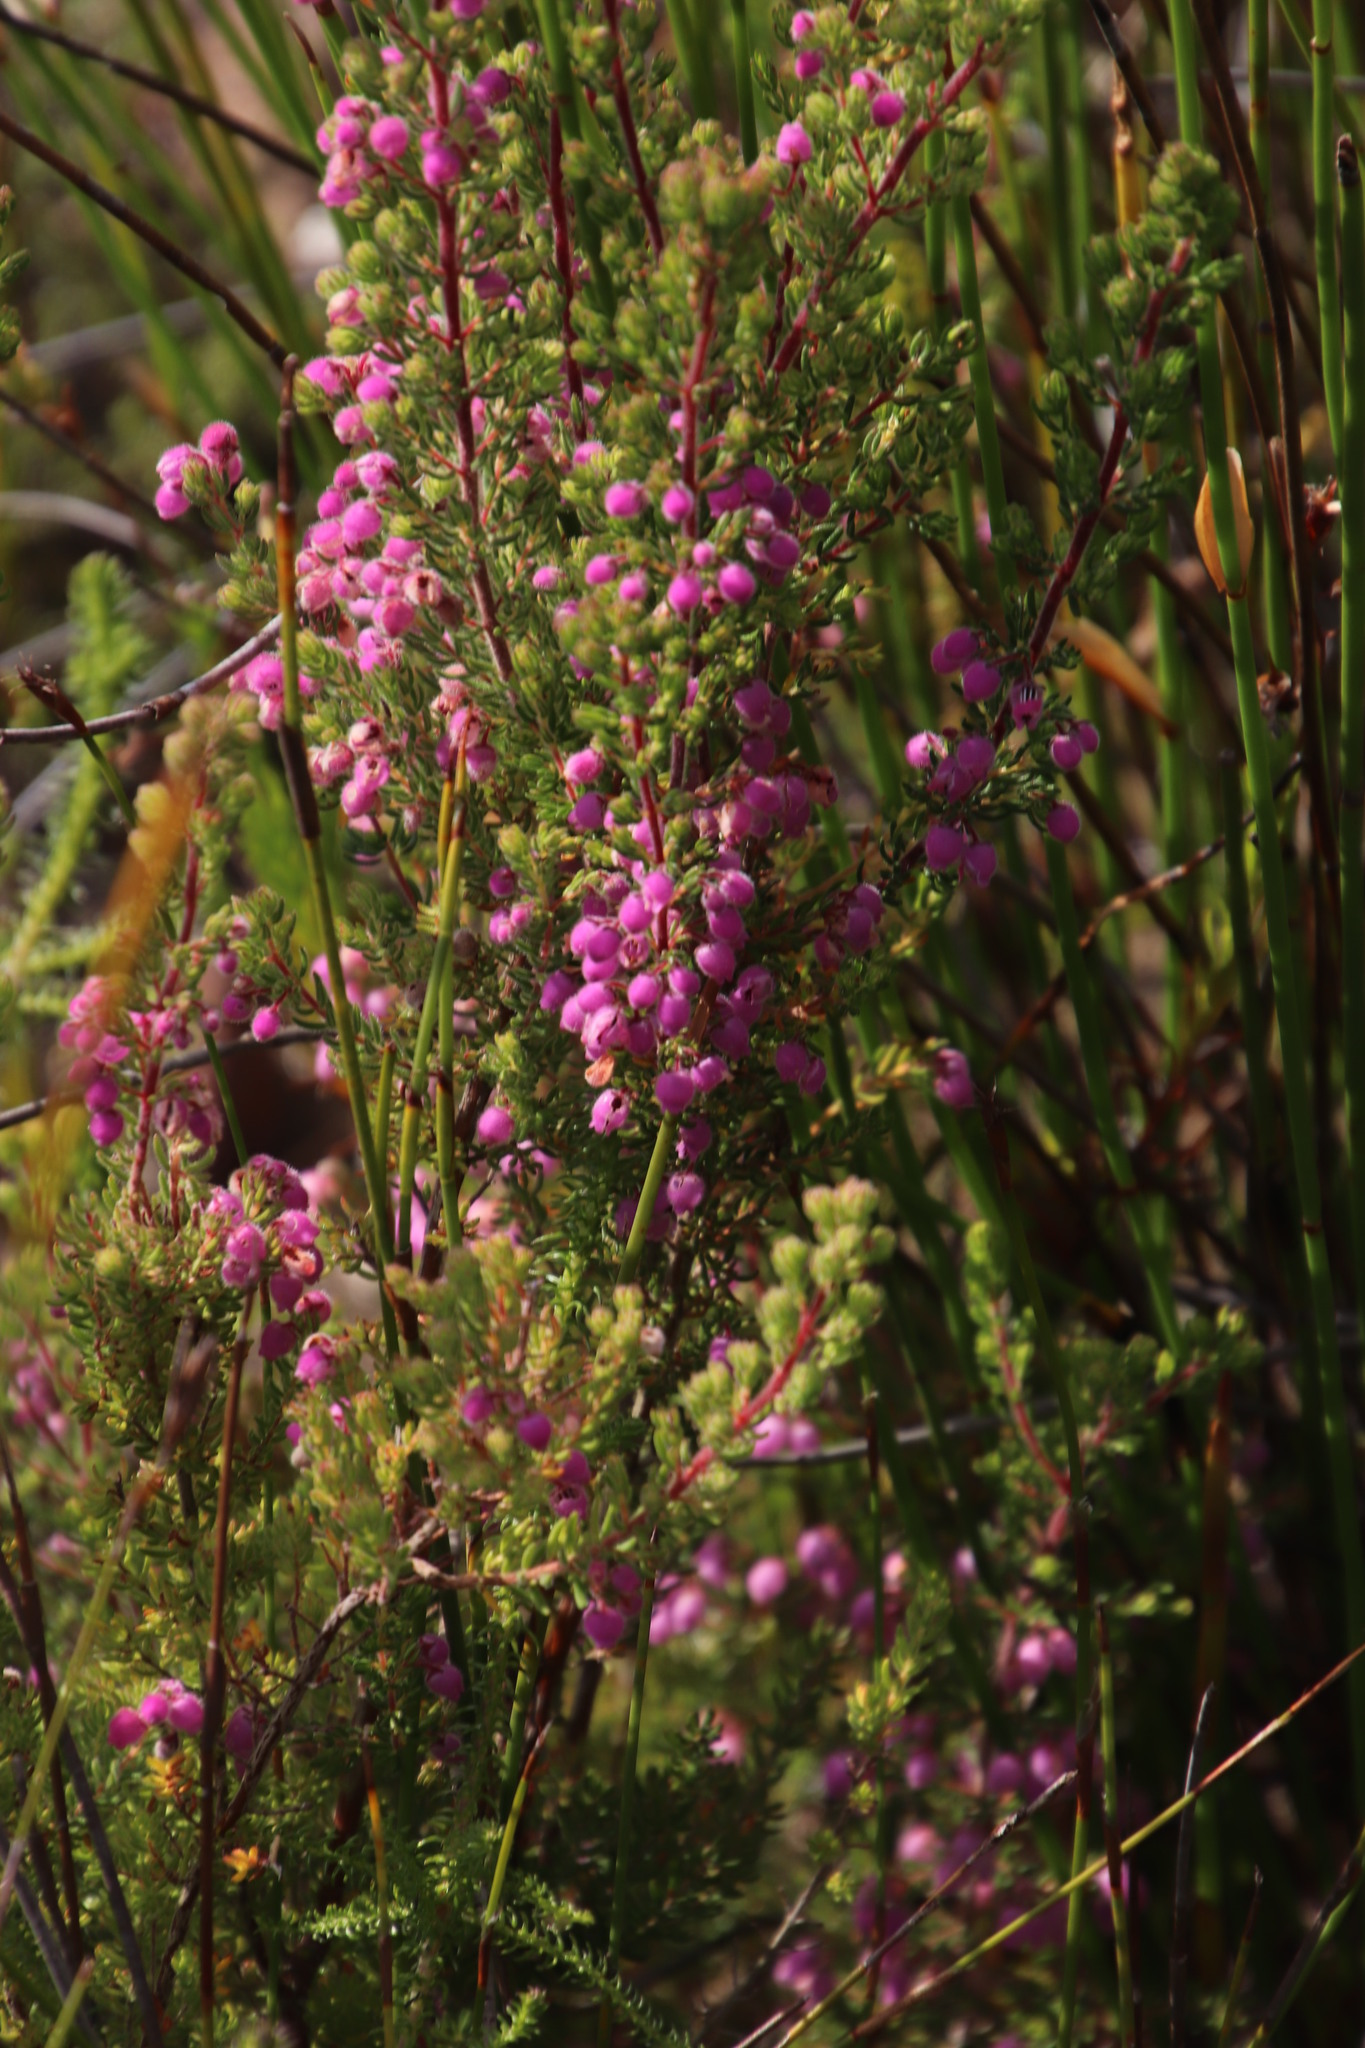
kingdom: Plantae
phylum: Tracheophyta
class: Magnoliopsida
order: Ericales
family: Ericaceae
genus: Erica
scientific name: Erica hirtiflora
